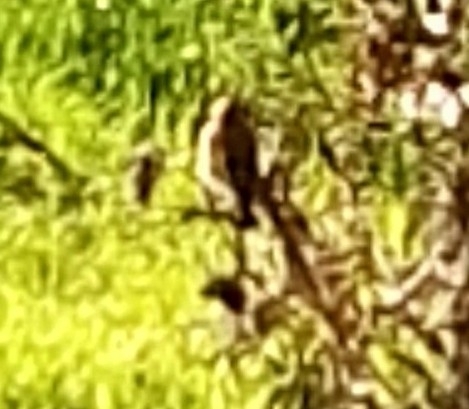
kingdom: Animalia
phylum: Chordata
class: Aves
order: Passeriformes
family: Fringillidae
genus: Carduelis
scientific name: Carduelis carduelis
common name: European goldfinch
